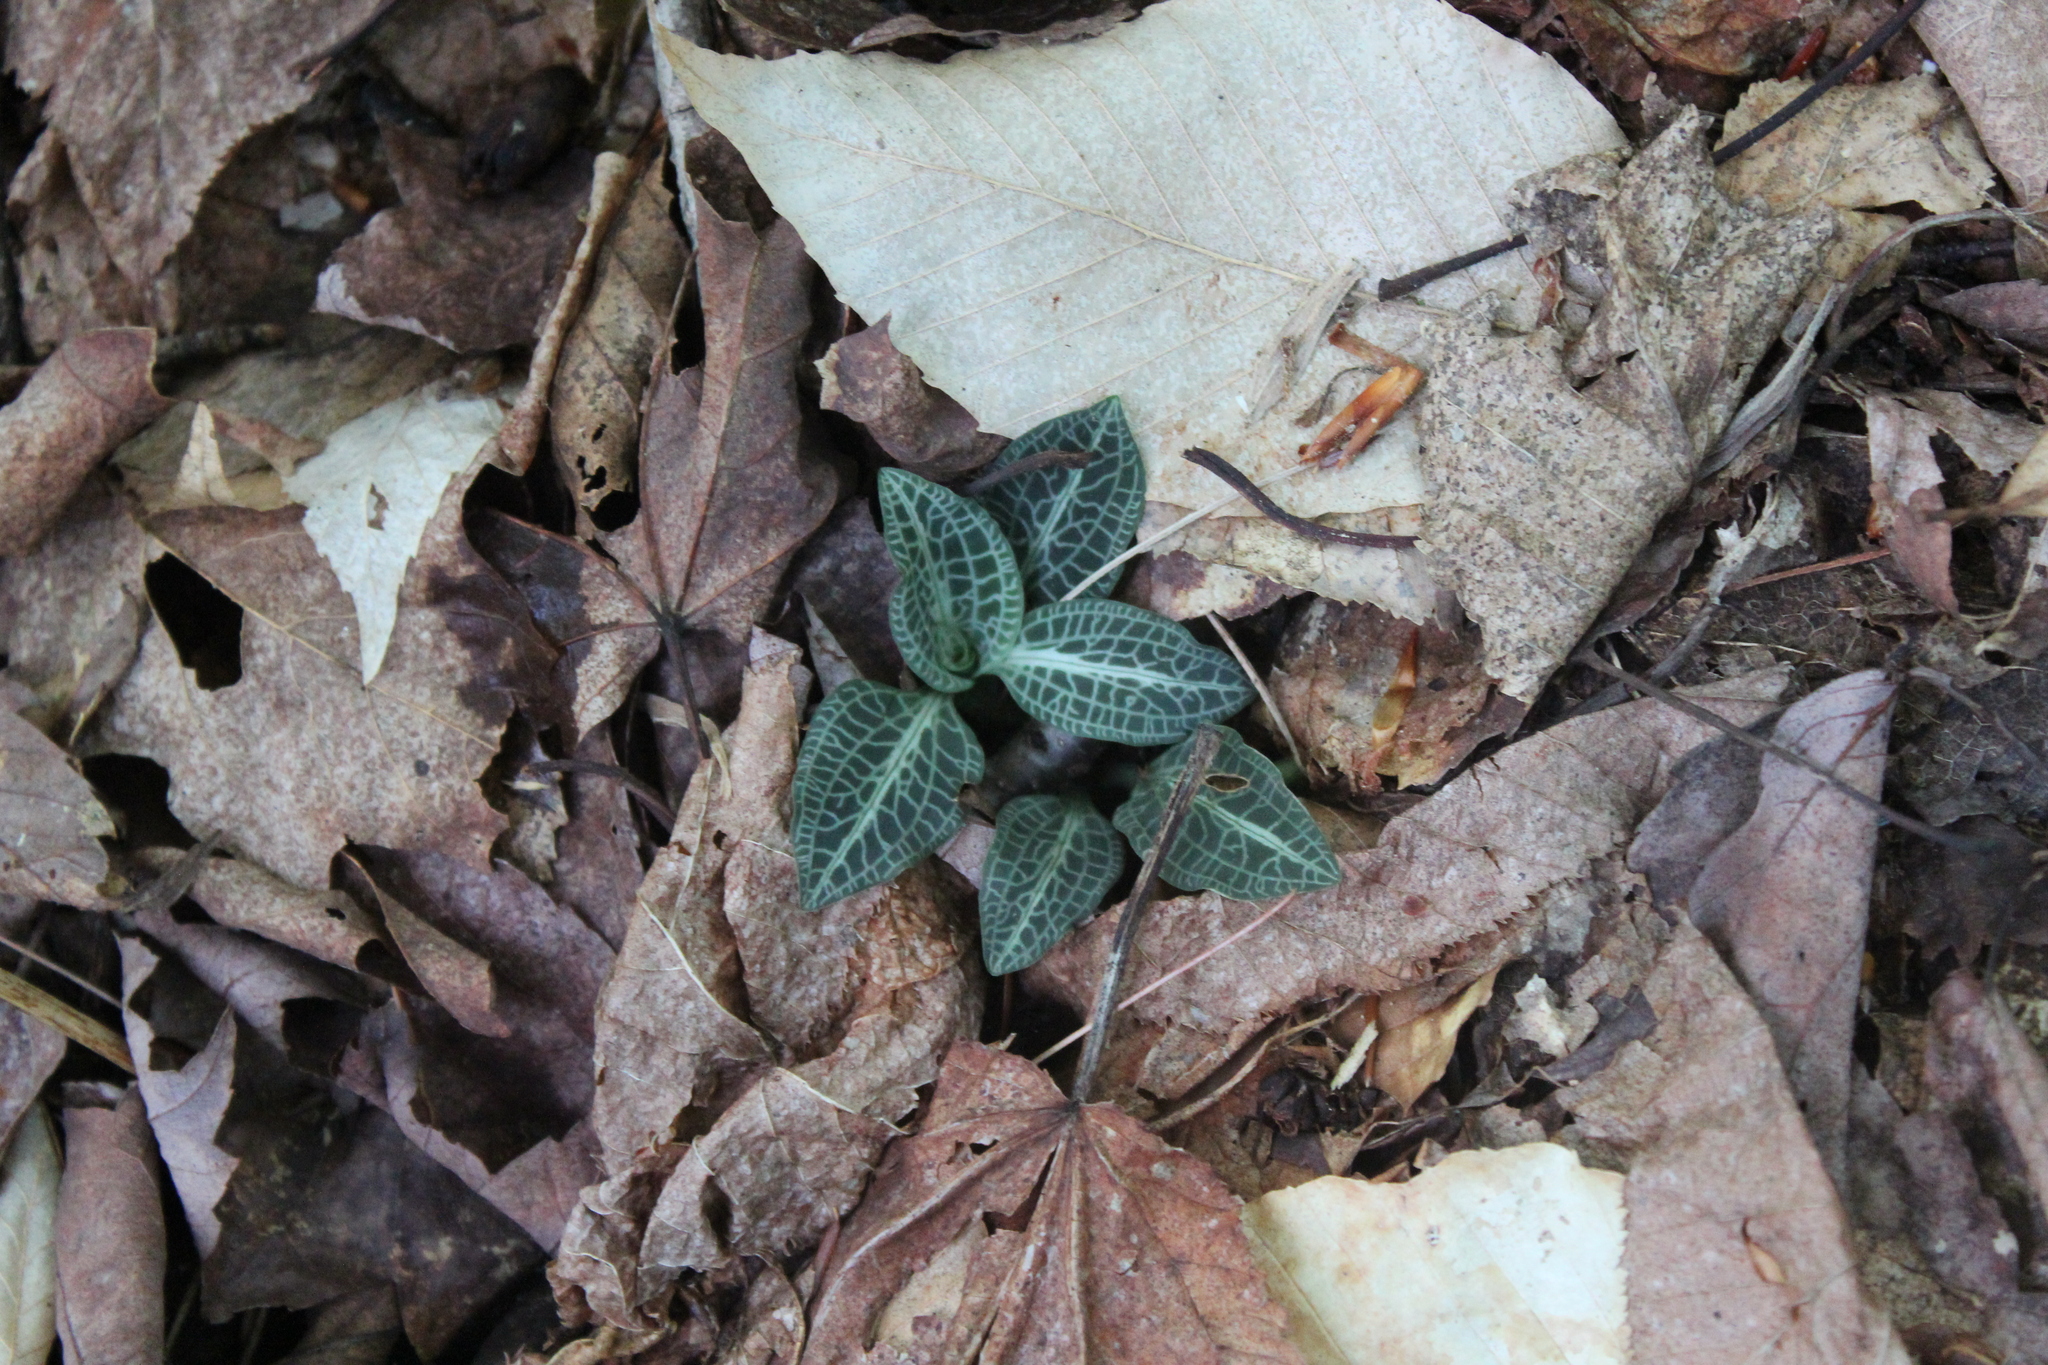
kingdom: Plantae
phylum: Tracheophyta
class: Liliopsida
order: Asparagales
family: Orchidaceae
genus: Goodyera
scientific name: Goodyera pubescens
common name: Downy rattlesnake-plantain
